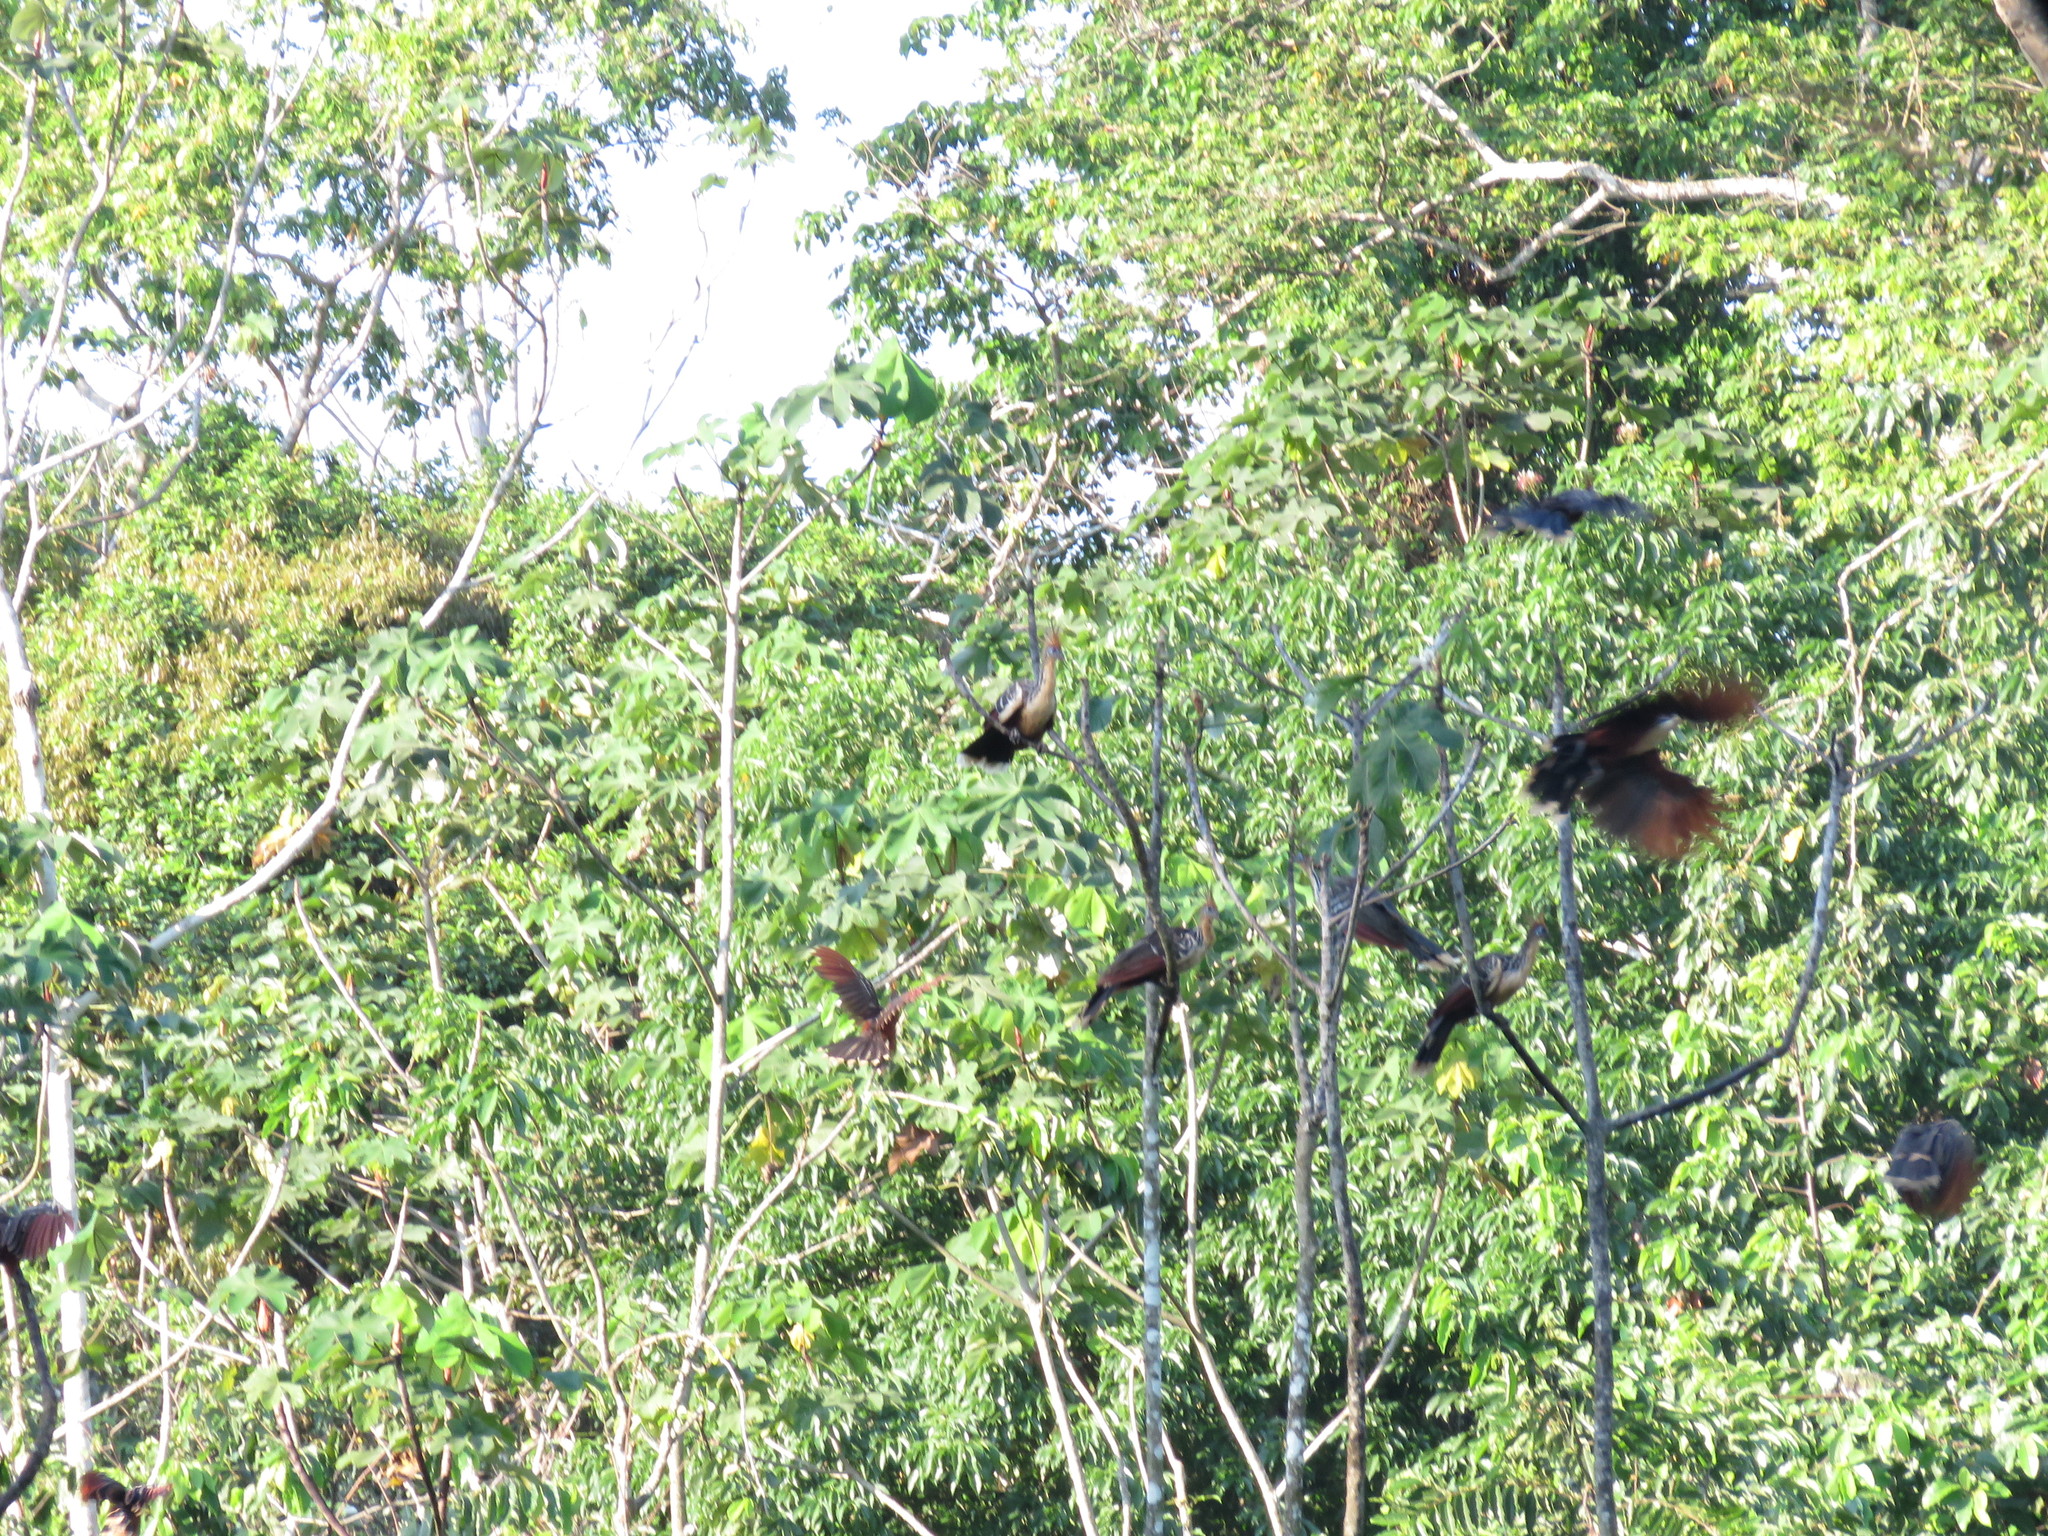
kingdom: Animalia
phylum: Chordata
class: Aves
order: Opisthocomiformes
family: Opisthocomidae
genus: Opisthocomus
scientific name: Opisthocomus hoazin
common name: Hoatzin
